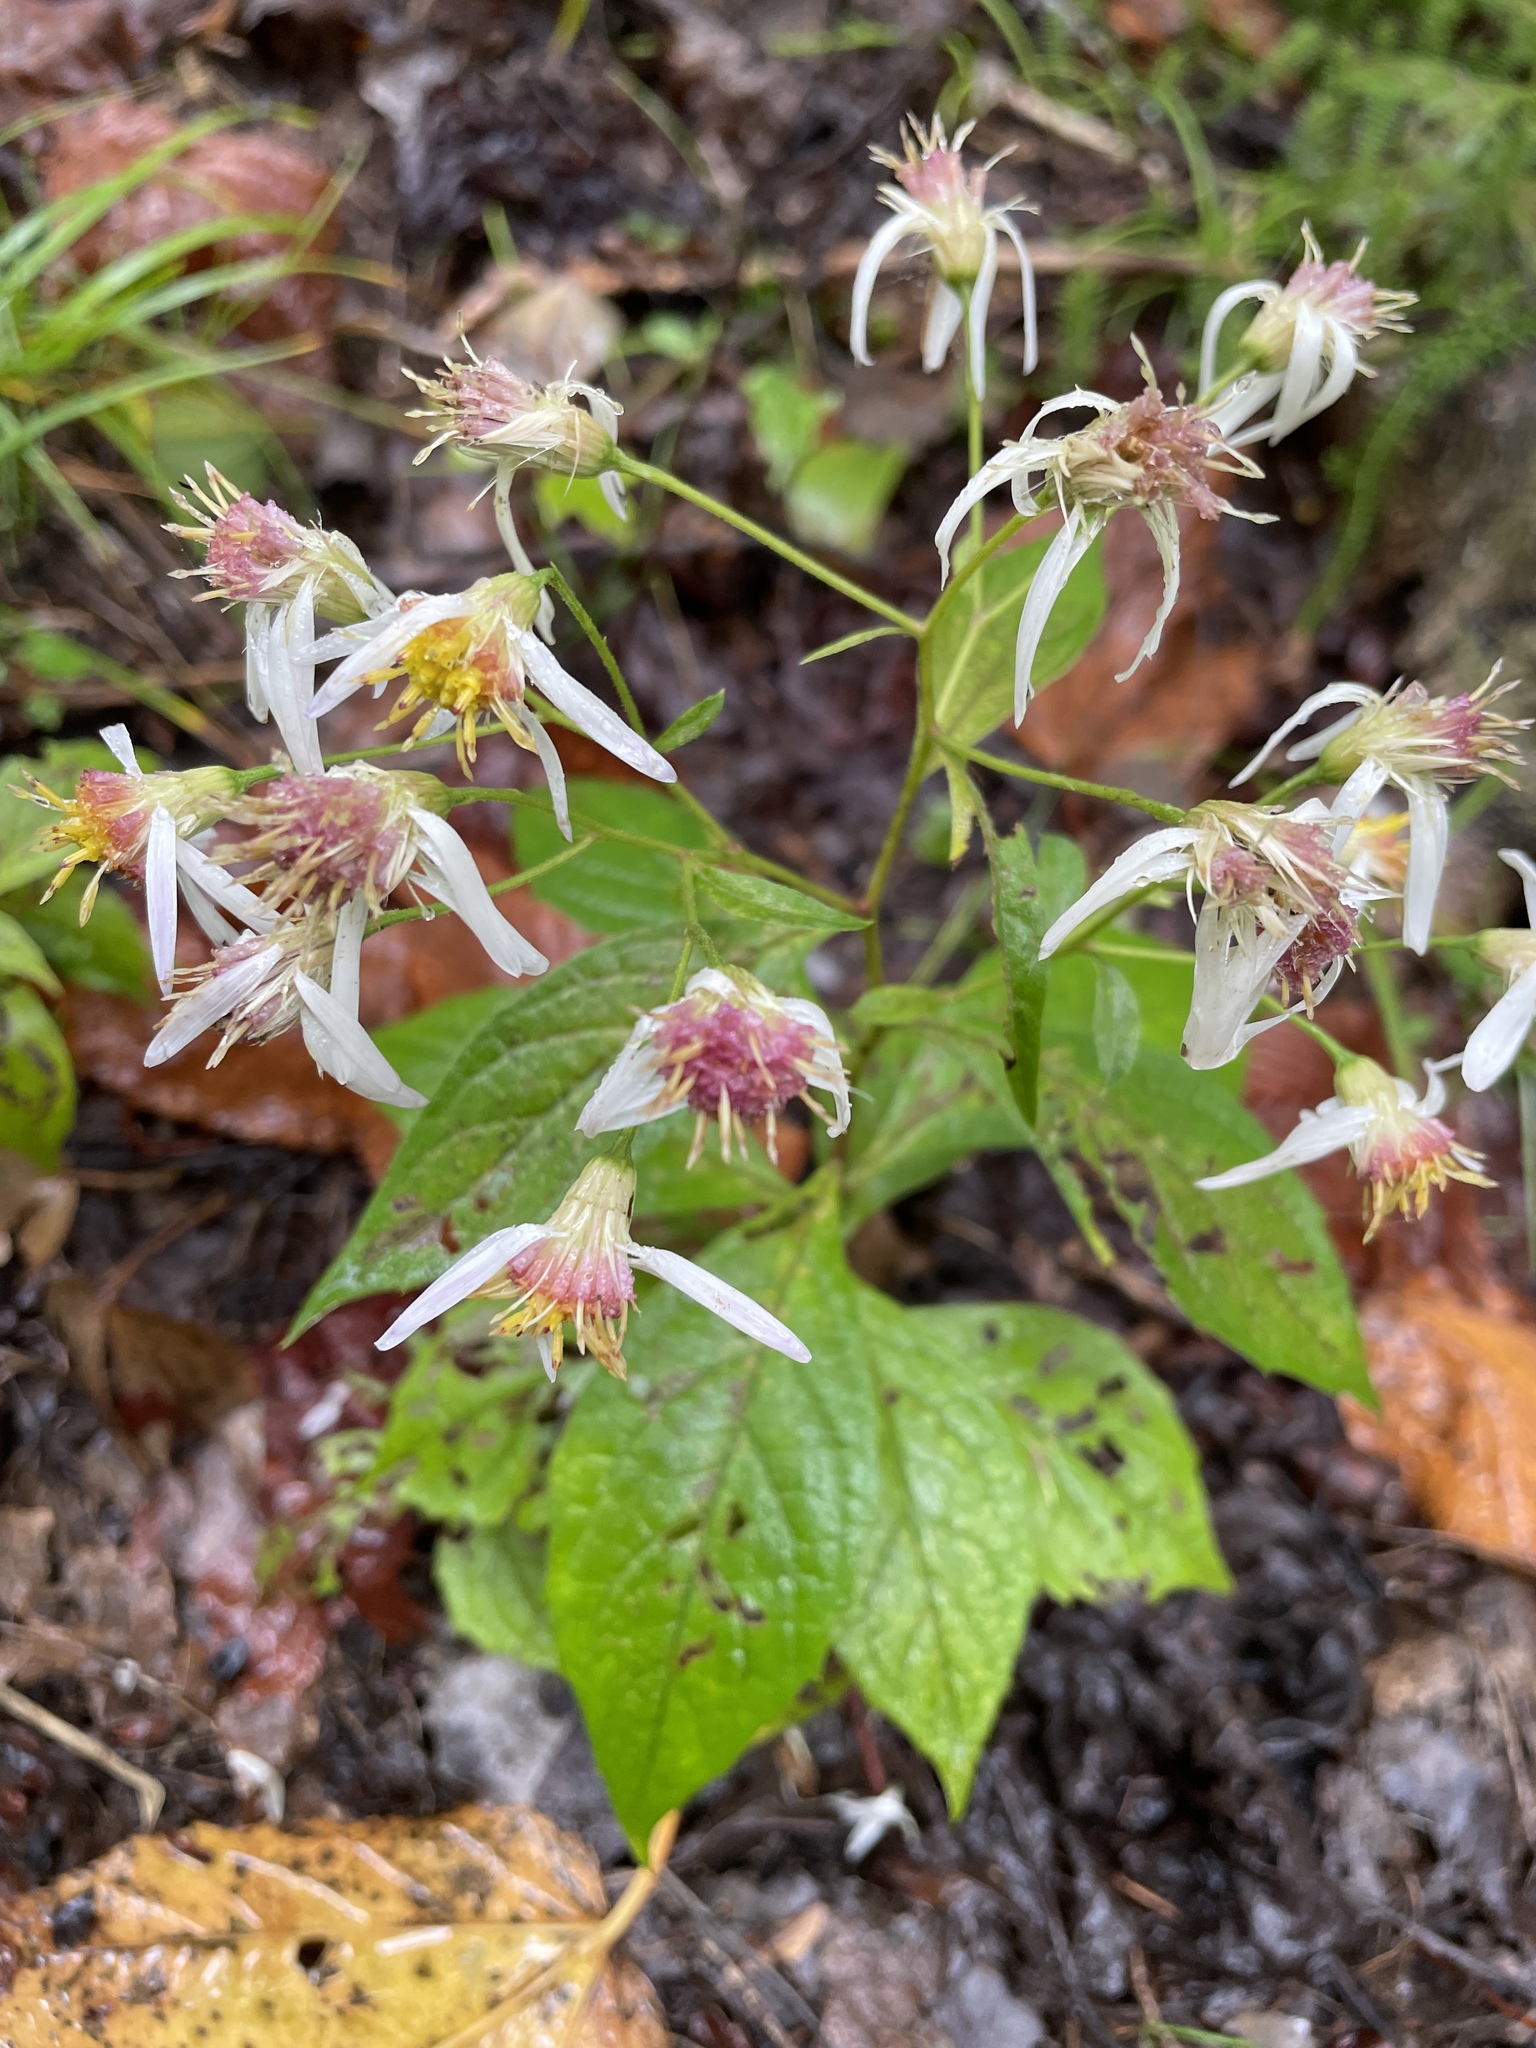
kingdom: Plantae
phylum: Tracheophyta
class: Magnoliopsida
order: Asterales
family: Asteraceae
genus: Oclemena
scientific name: Oclemena acuminata
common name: Mountain aster
